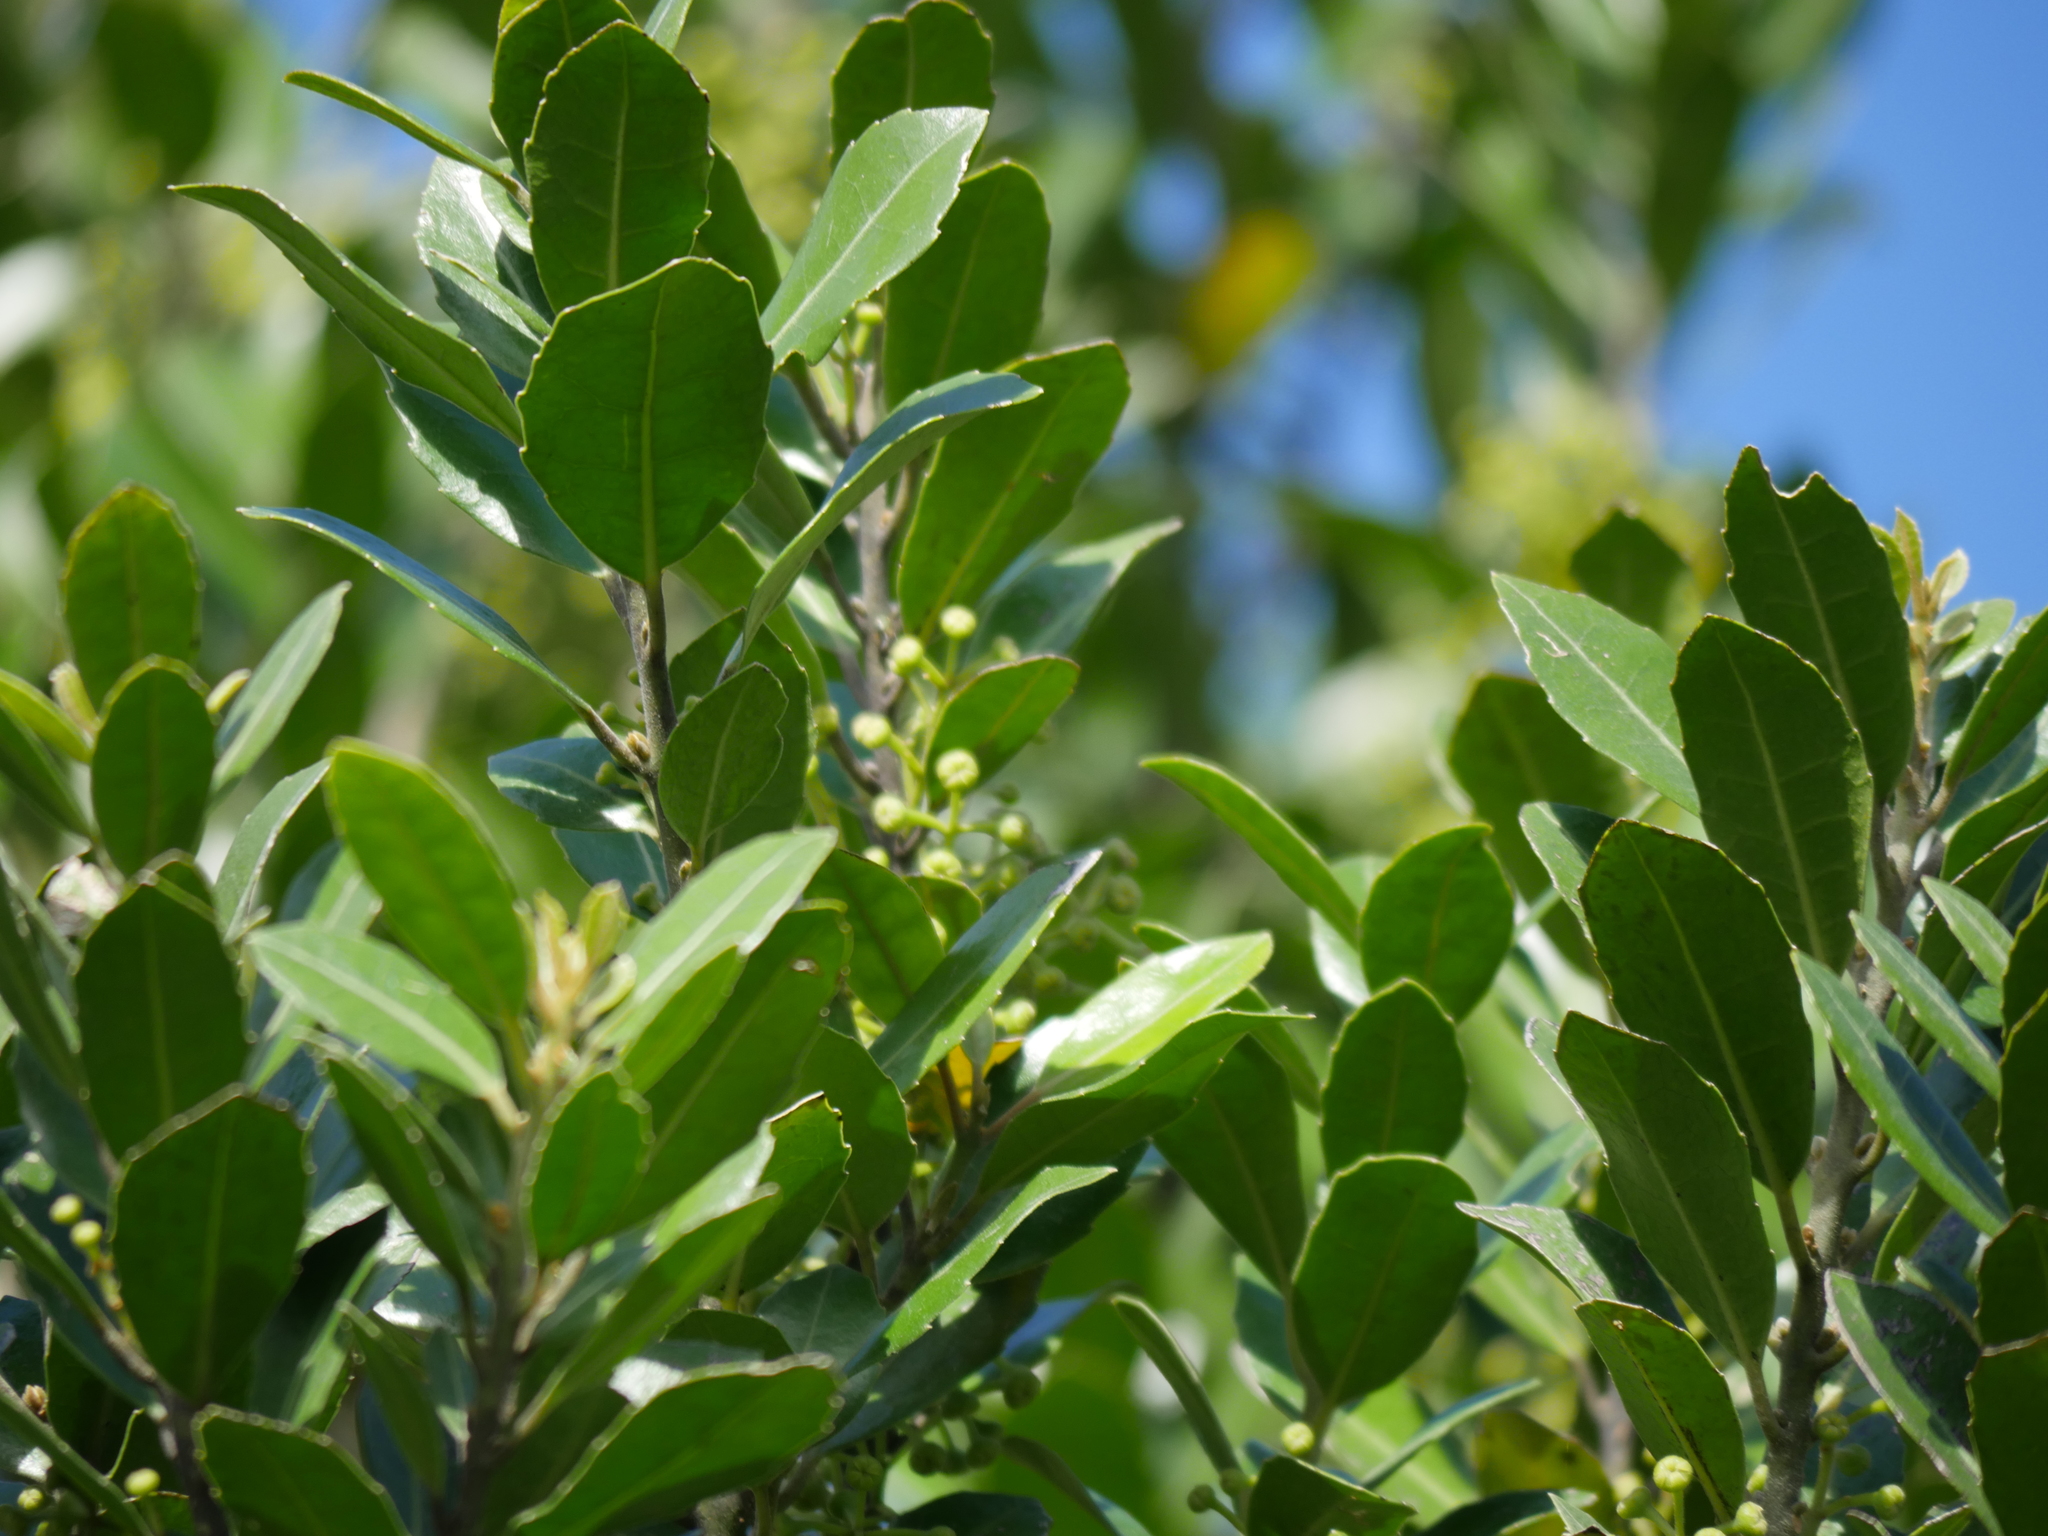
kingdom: Plantae
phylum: Tracheophyta
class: Magnoliopsida
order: Laurales
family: Monimiaceae
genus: Hedycarya
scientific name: Hedycarya arborea
